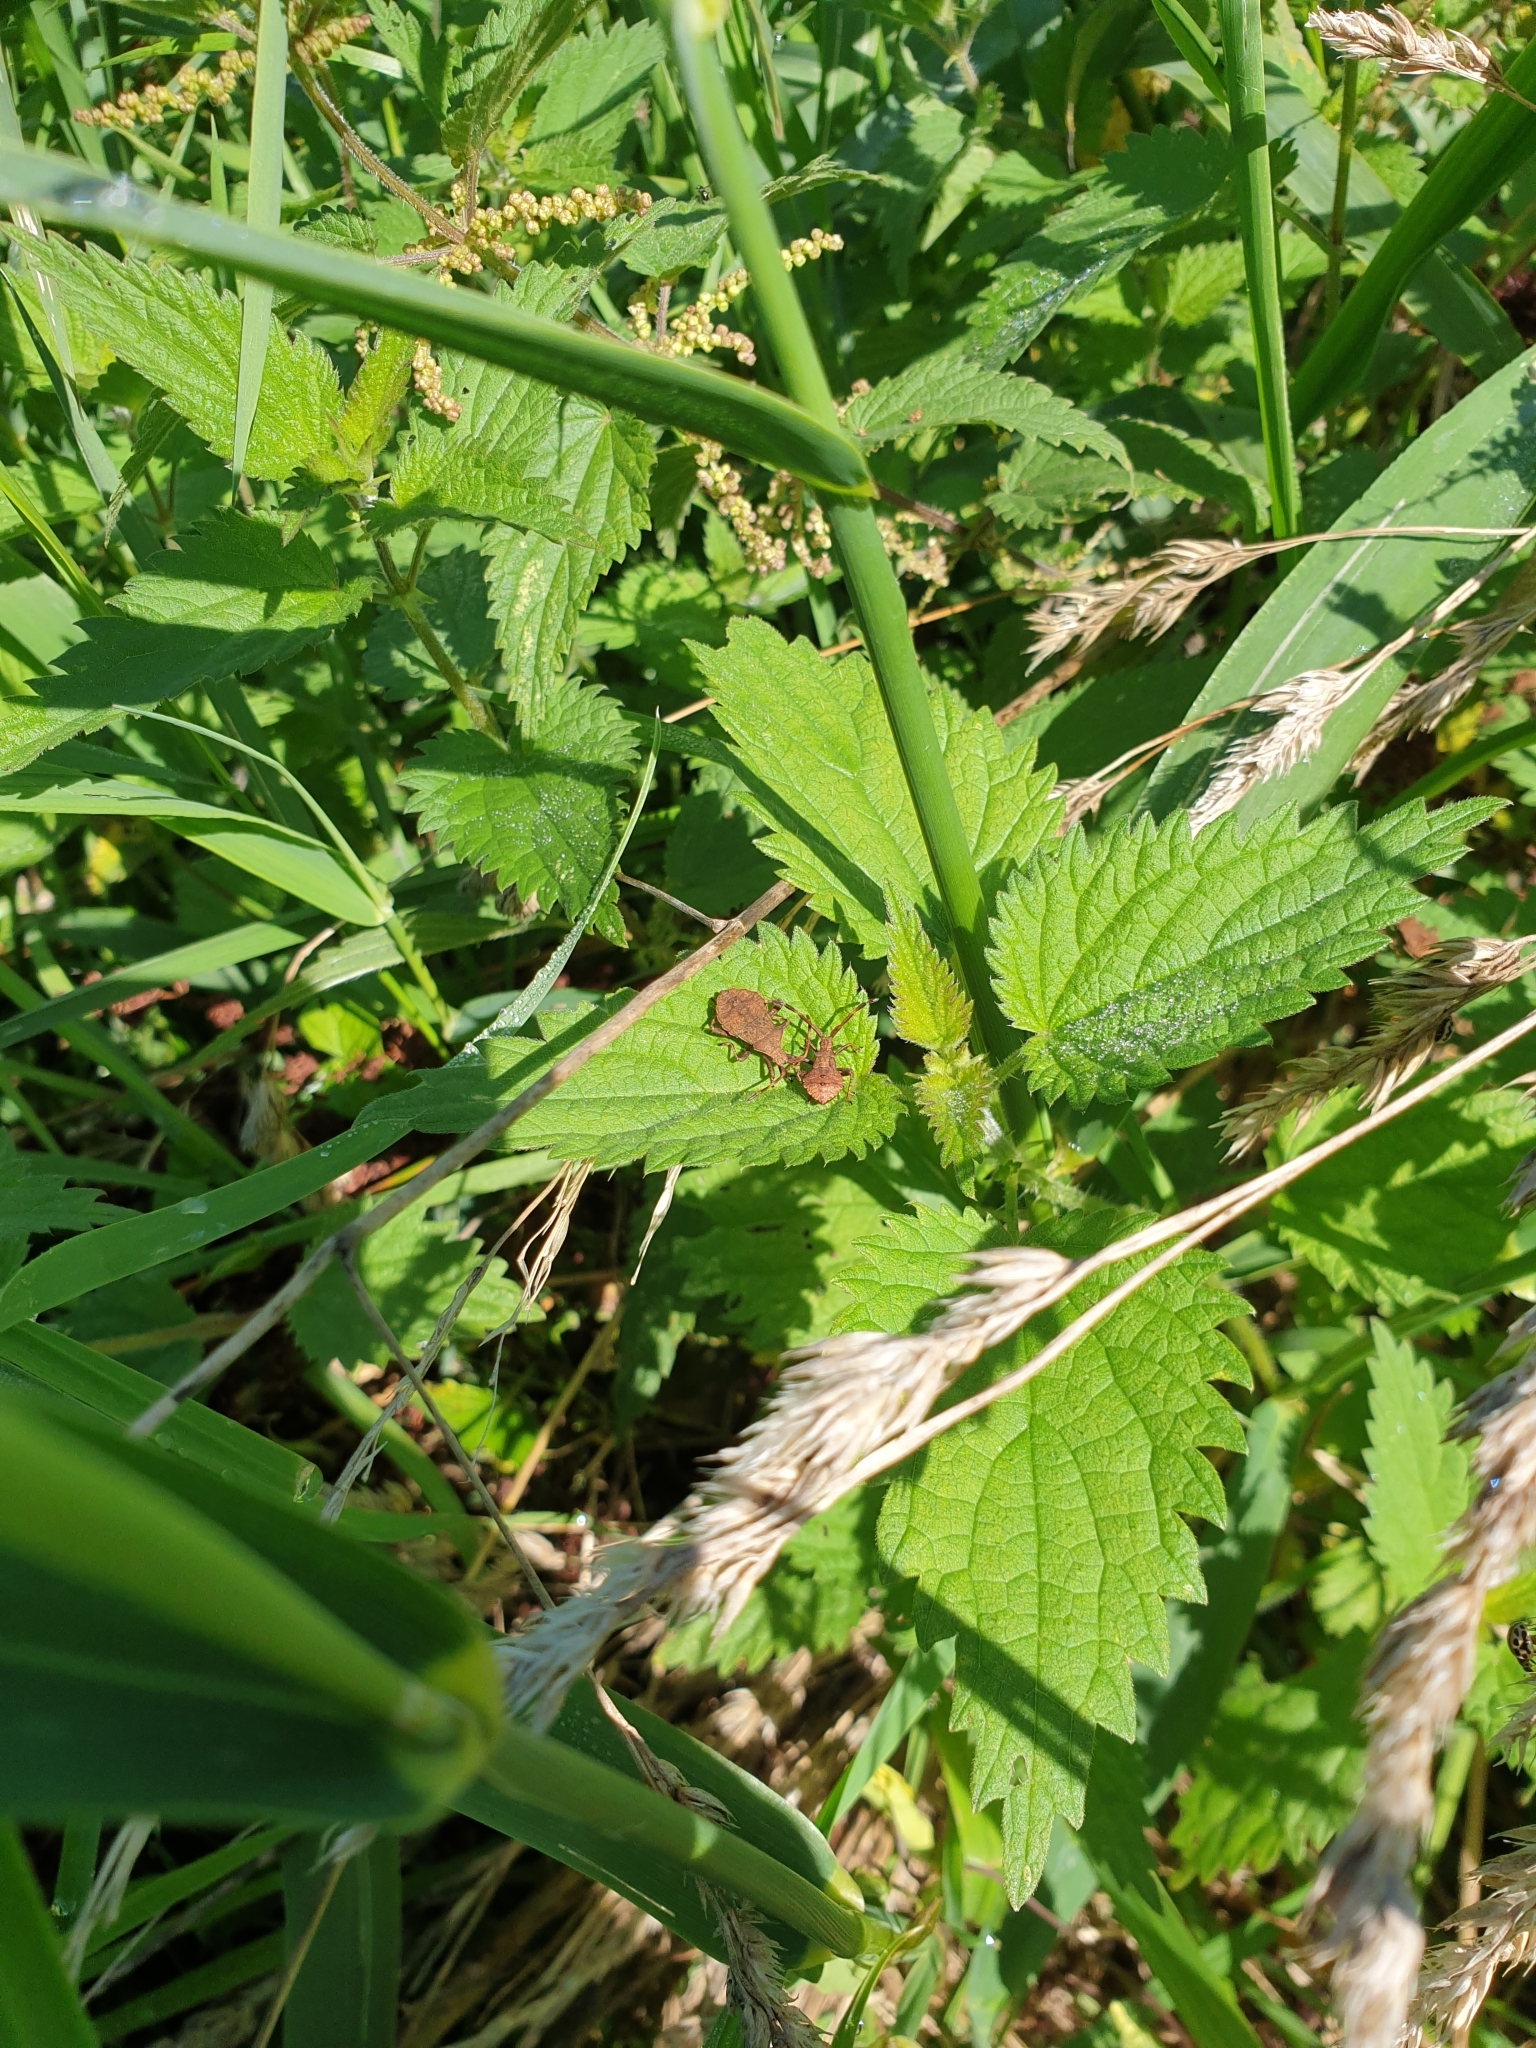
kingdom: Animalia
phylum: Arthropoda
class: Insecta
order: Hemiptera
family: Coreidae
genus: Coreus
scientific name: Coreus marginatus
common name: Dock bug
